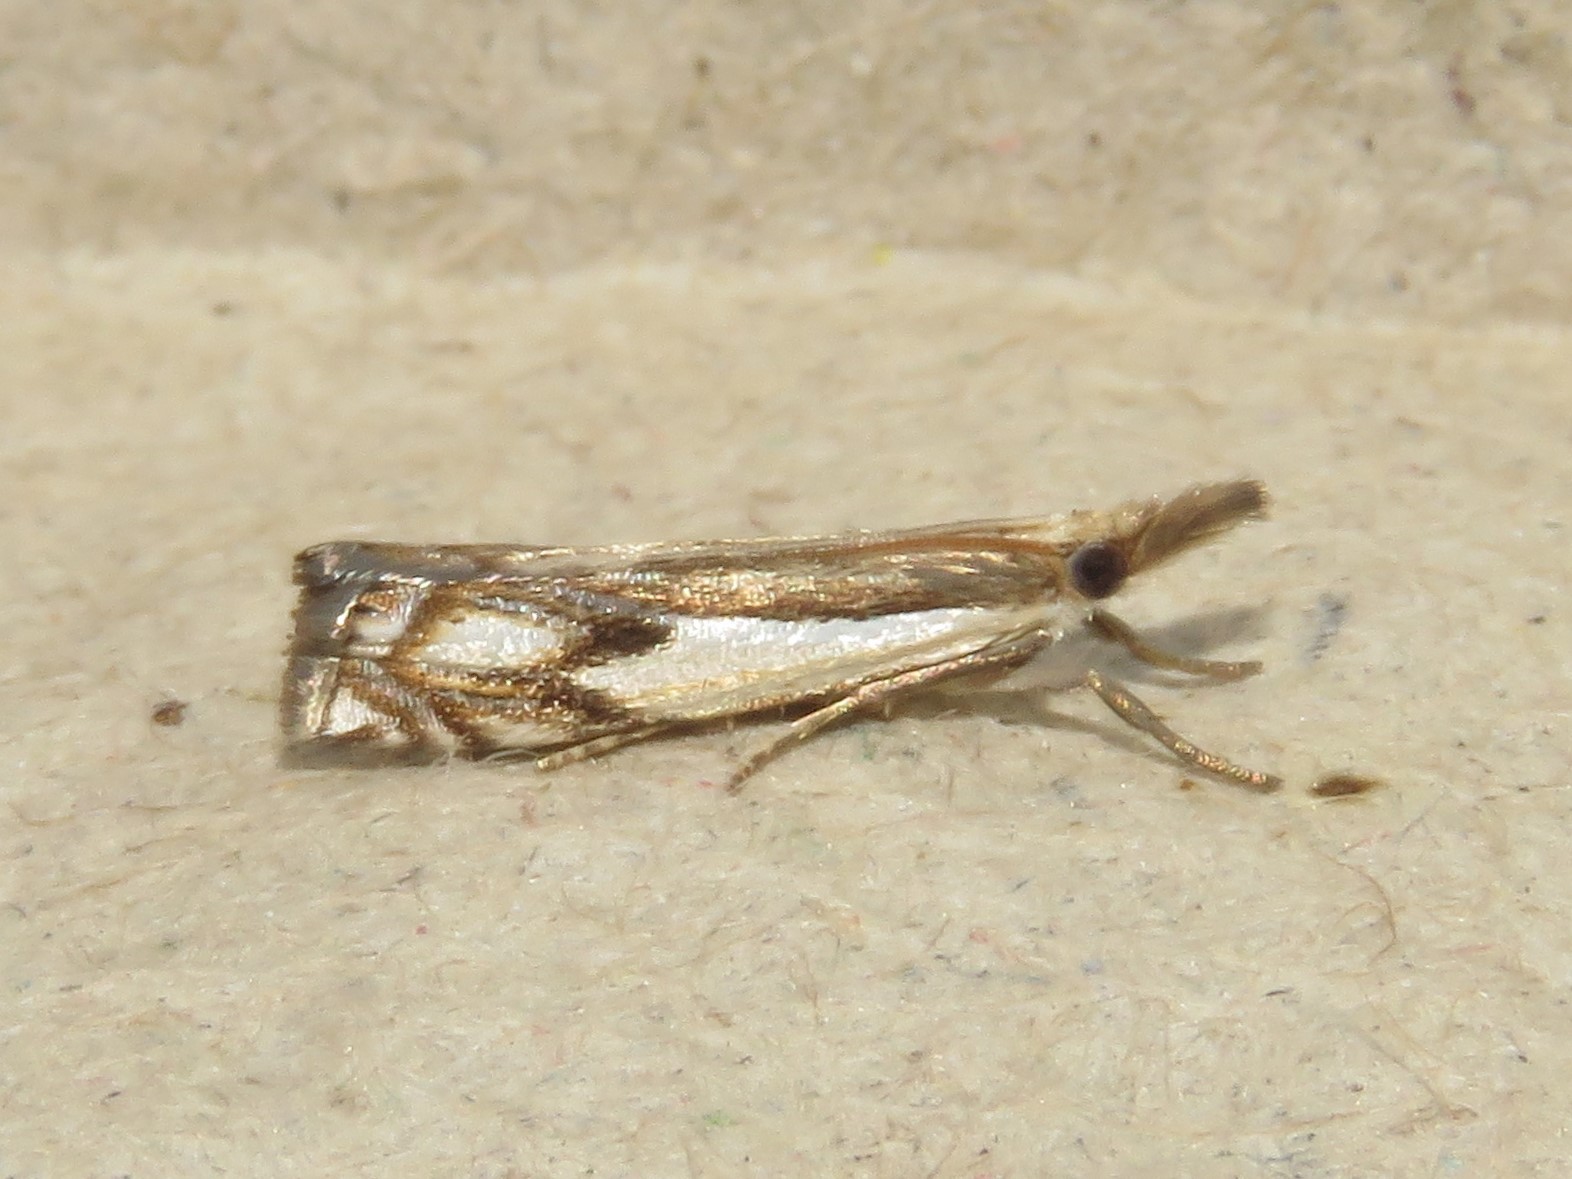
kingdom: Animalia
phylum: Arthropoda
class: Insecta
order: Lepidoptera
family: Crambidae
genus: Crambus
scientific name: Crambus agitatellus
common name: Double-banded grass-veneer
